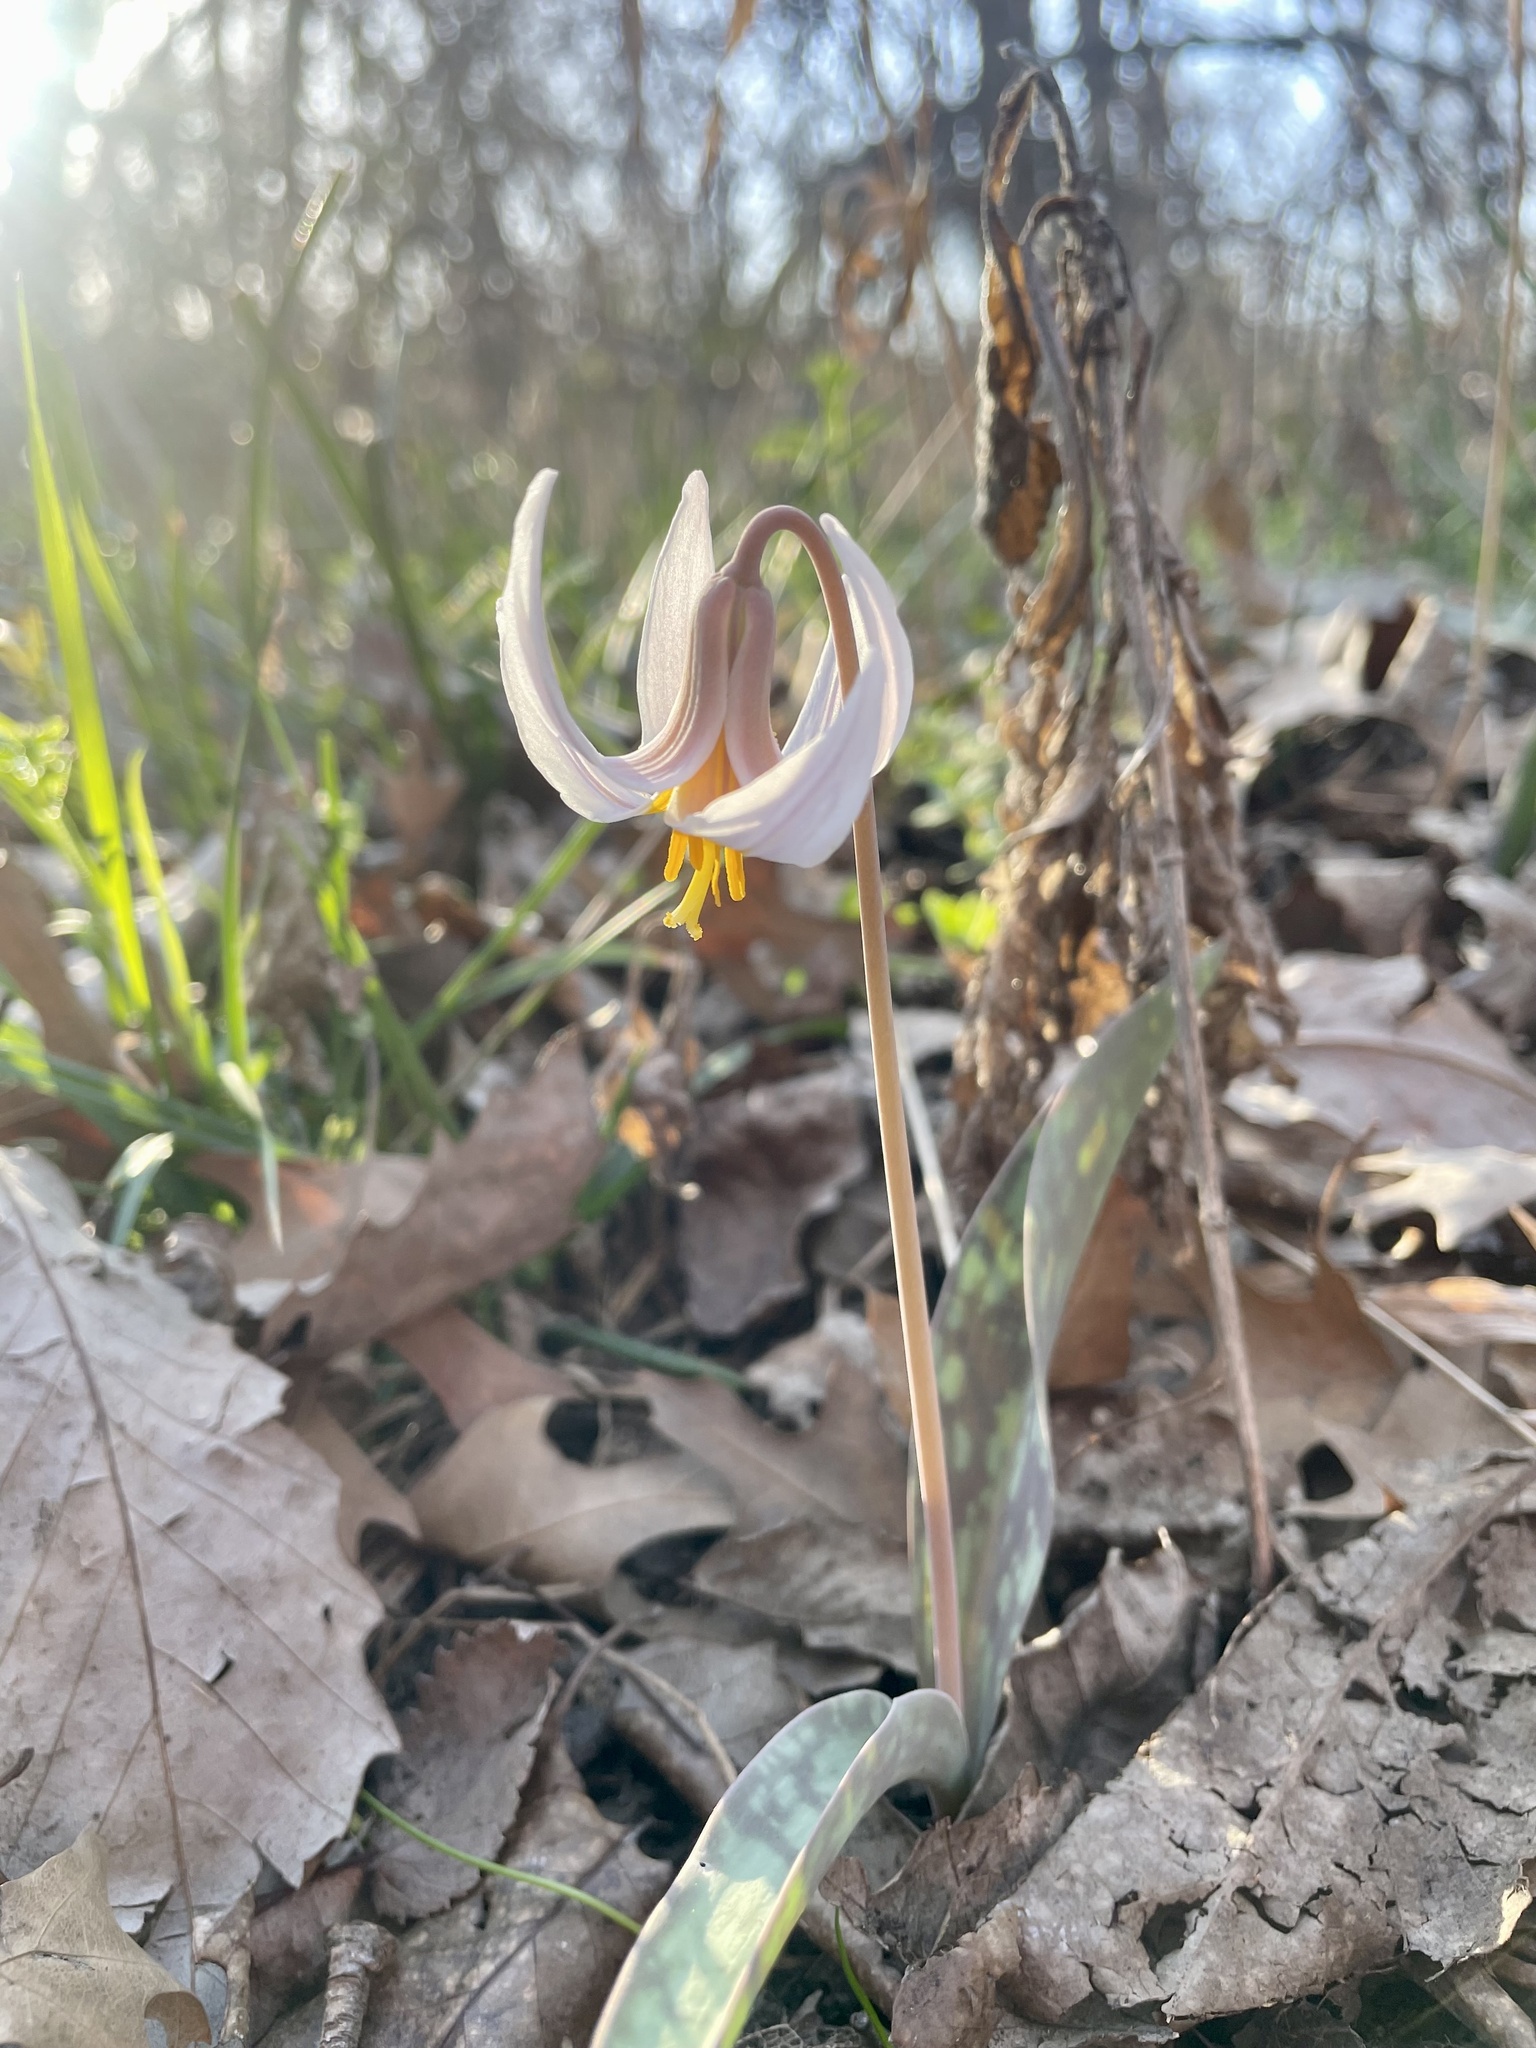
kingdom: Plantae
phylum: Tracheophyta
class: Liliopsida
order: Liliales
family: Liliaceae
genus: Erythronium
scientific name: Erythronium albidum
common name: White trout-lily
